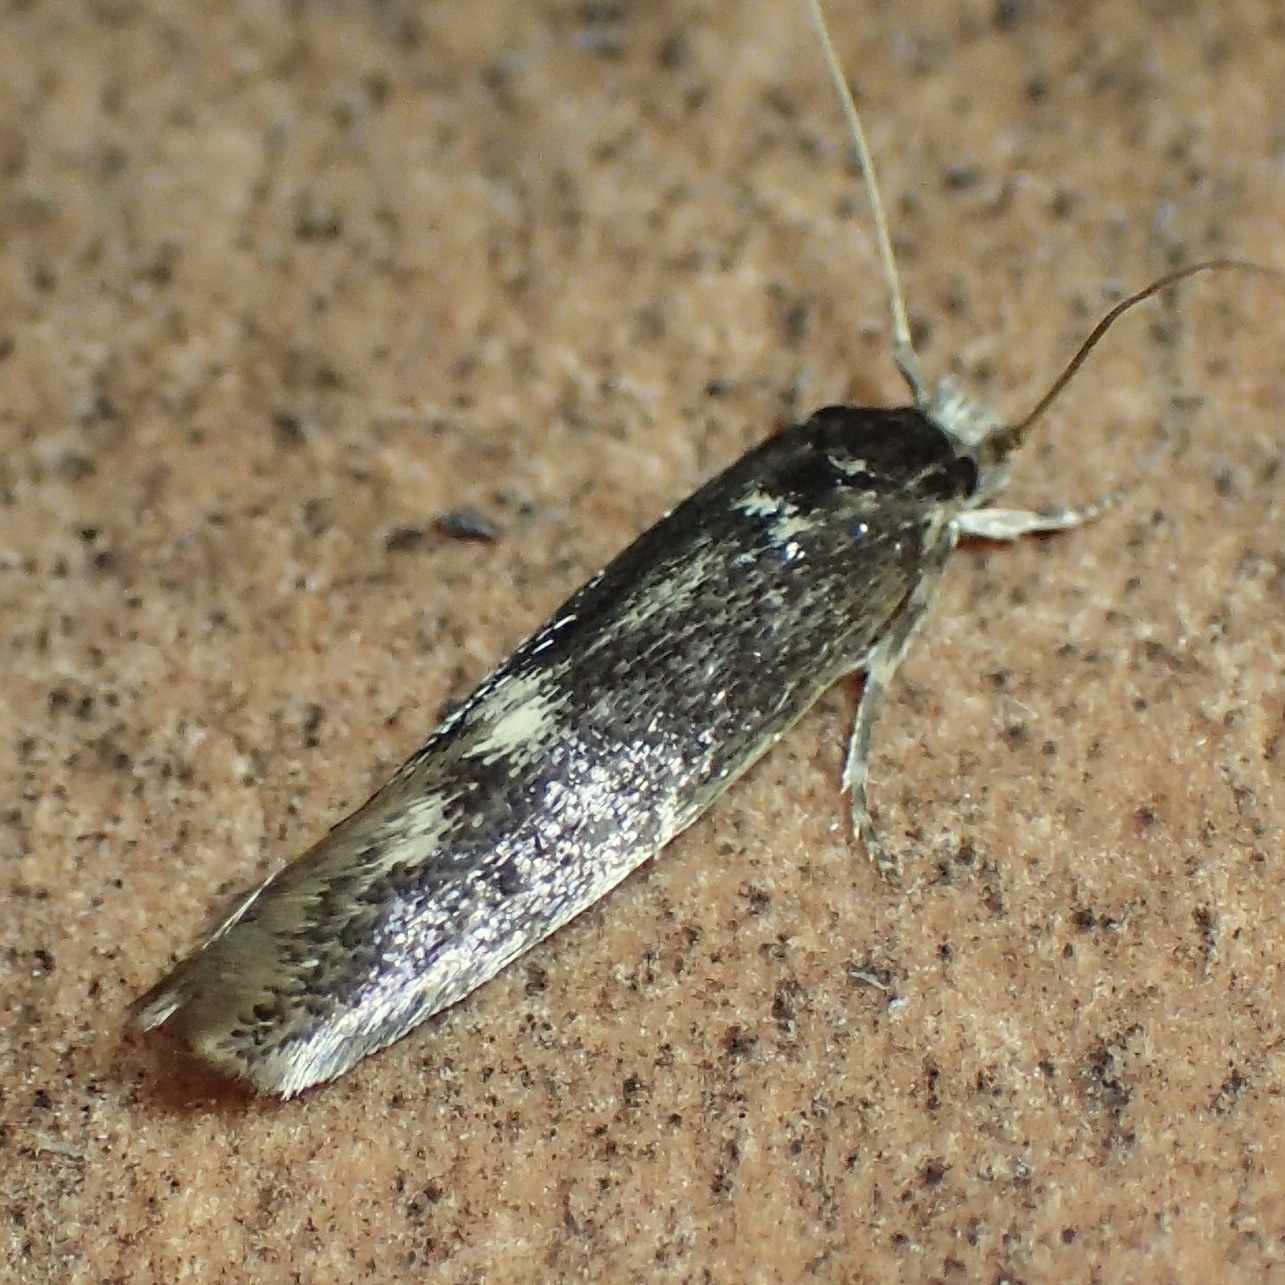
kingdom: Animalia
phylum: Arthropoda
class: Insecta
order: Lepidoptera
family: Tineidae
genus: Opogona
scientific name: Opogona omoscopa
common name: Moth
